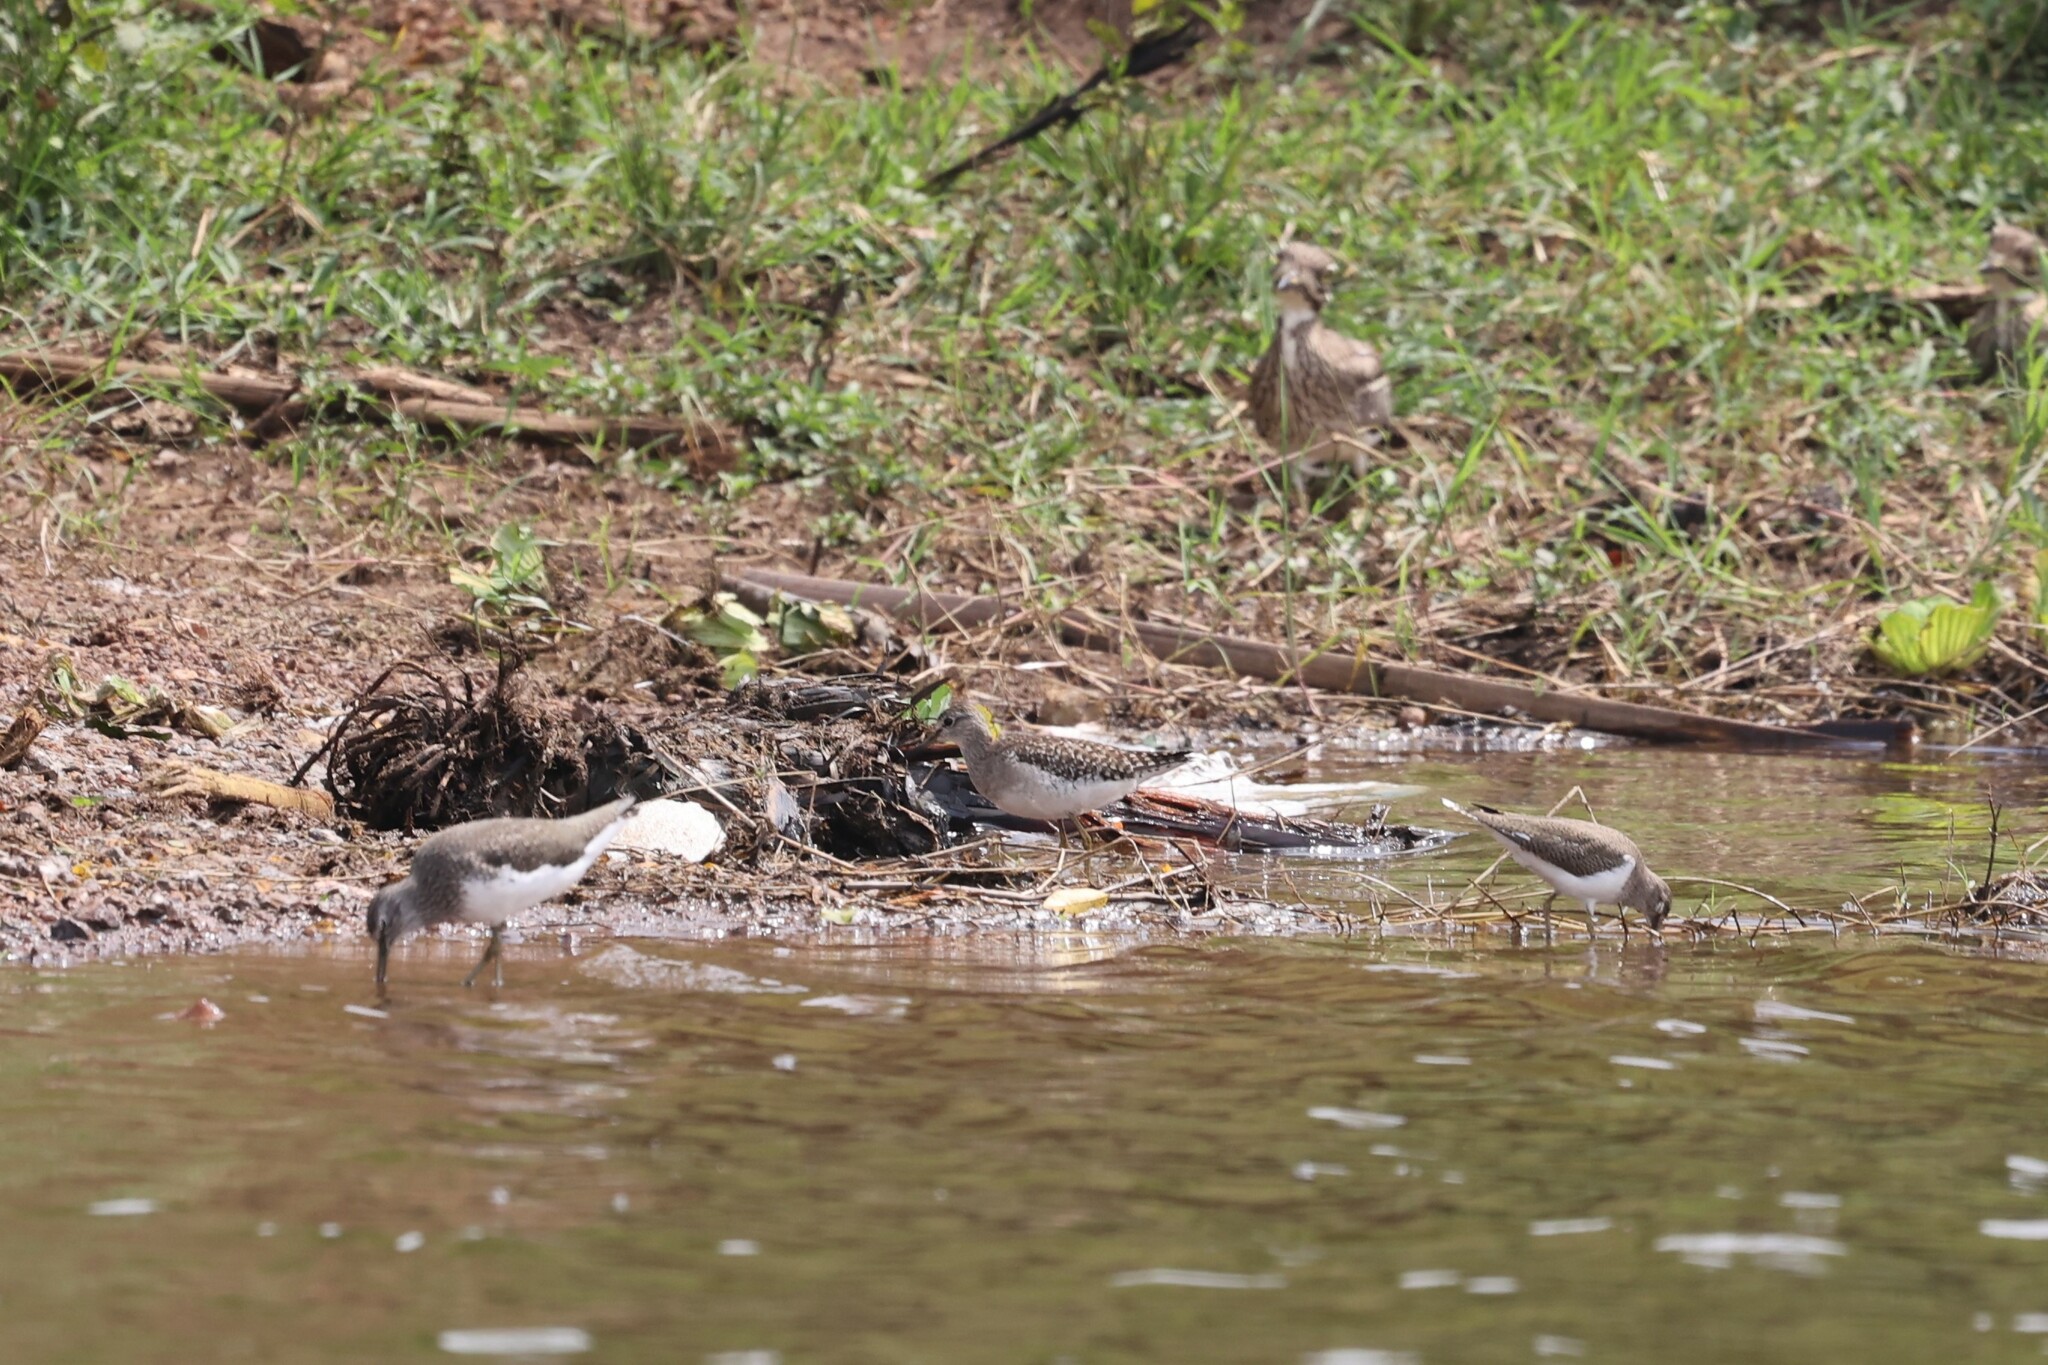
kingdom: Animalia
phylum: Chordata
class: Aves
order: Charadriiformes
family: Burhinidae
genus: Burhinus
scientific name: Burhinus vermiculatus
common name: Water thick-knee
